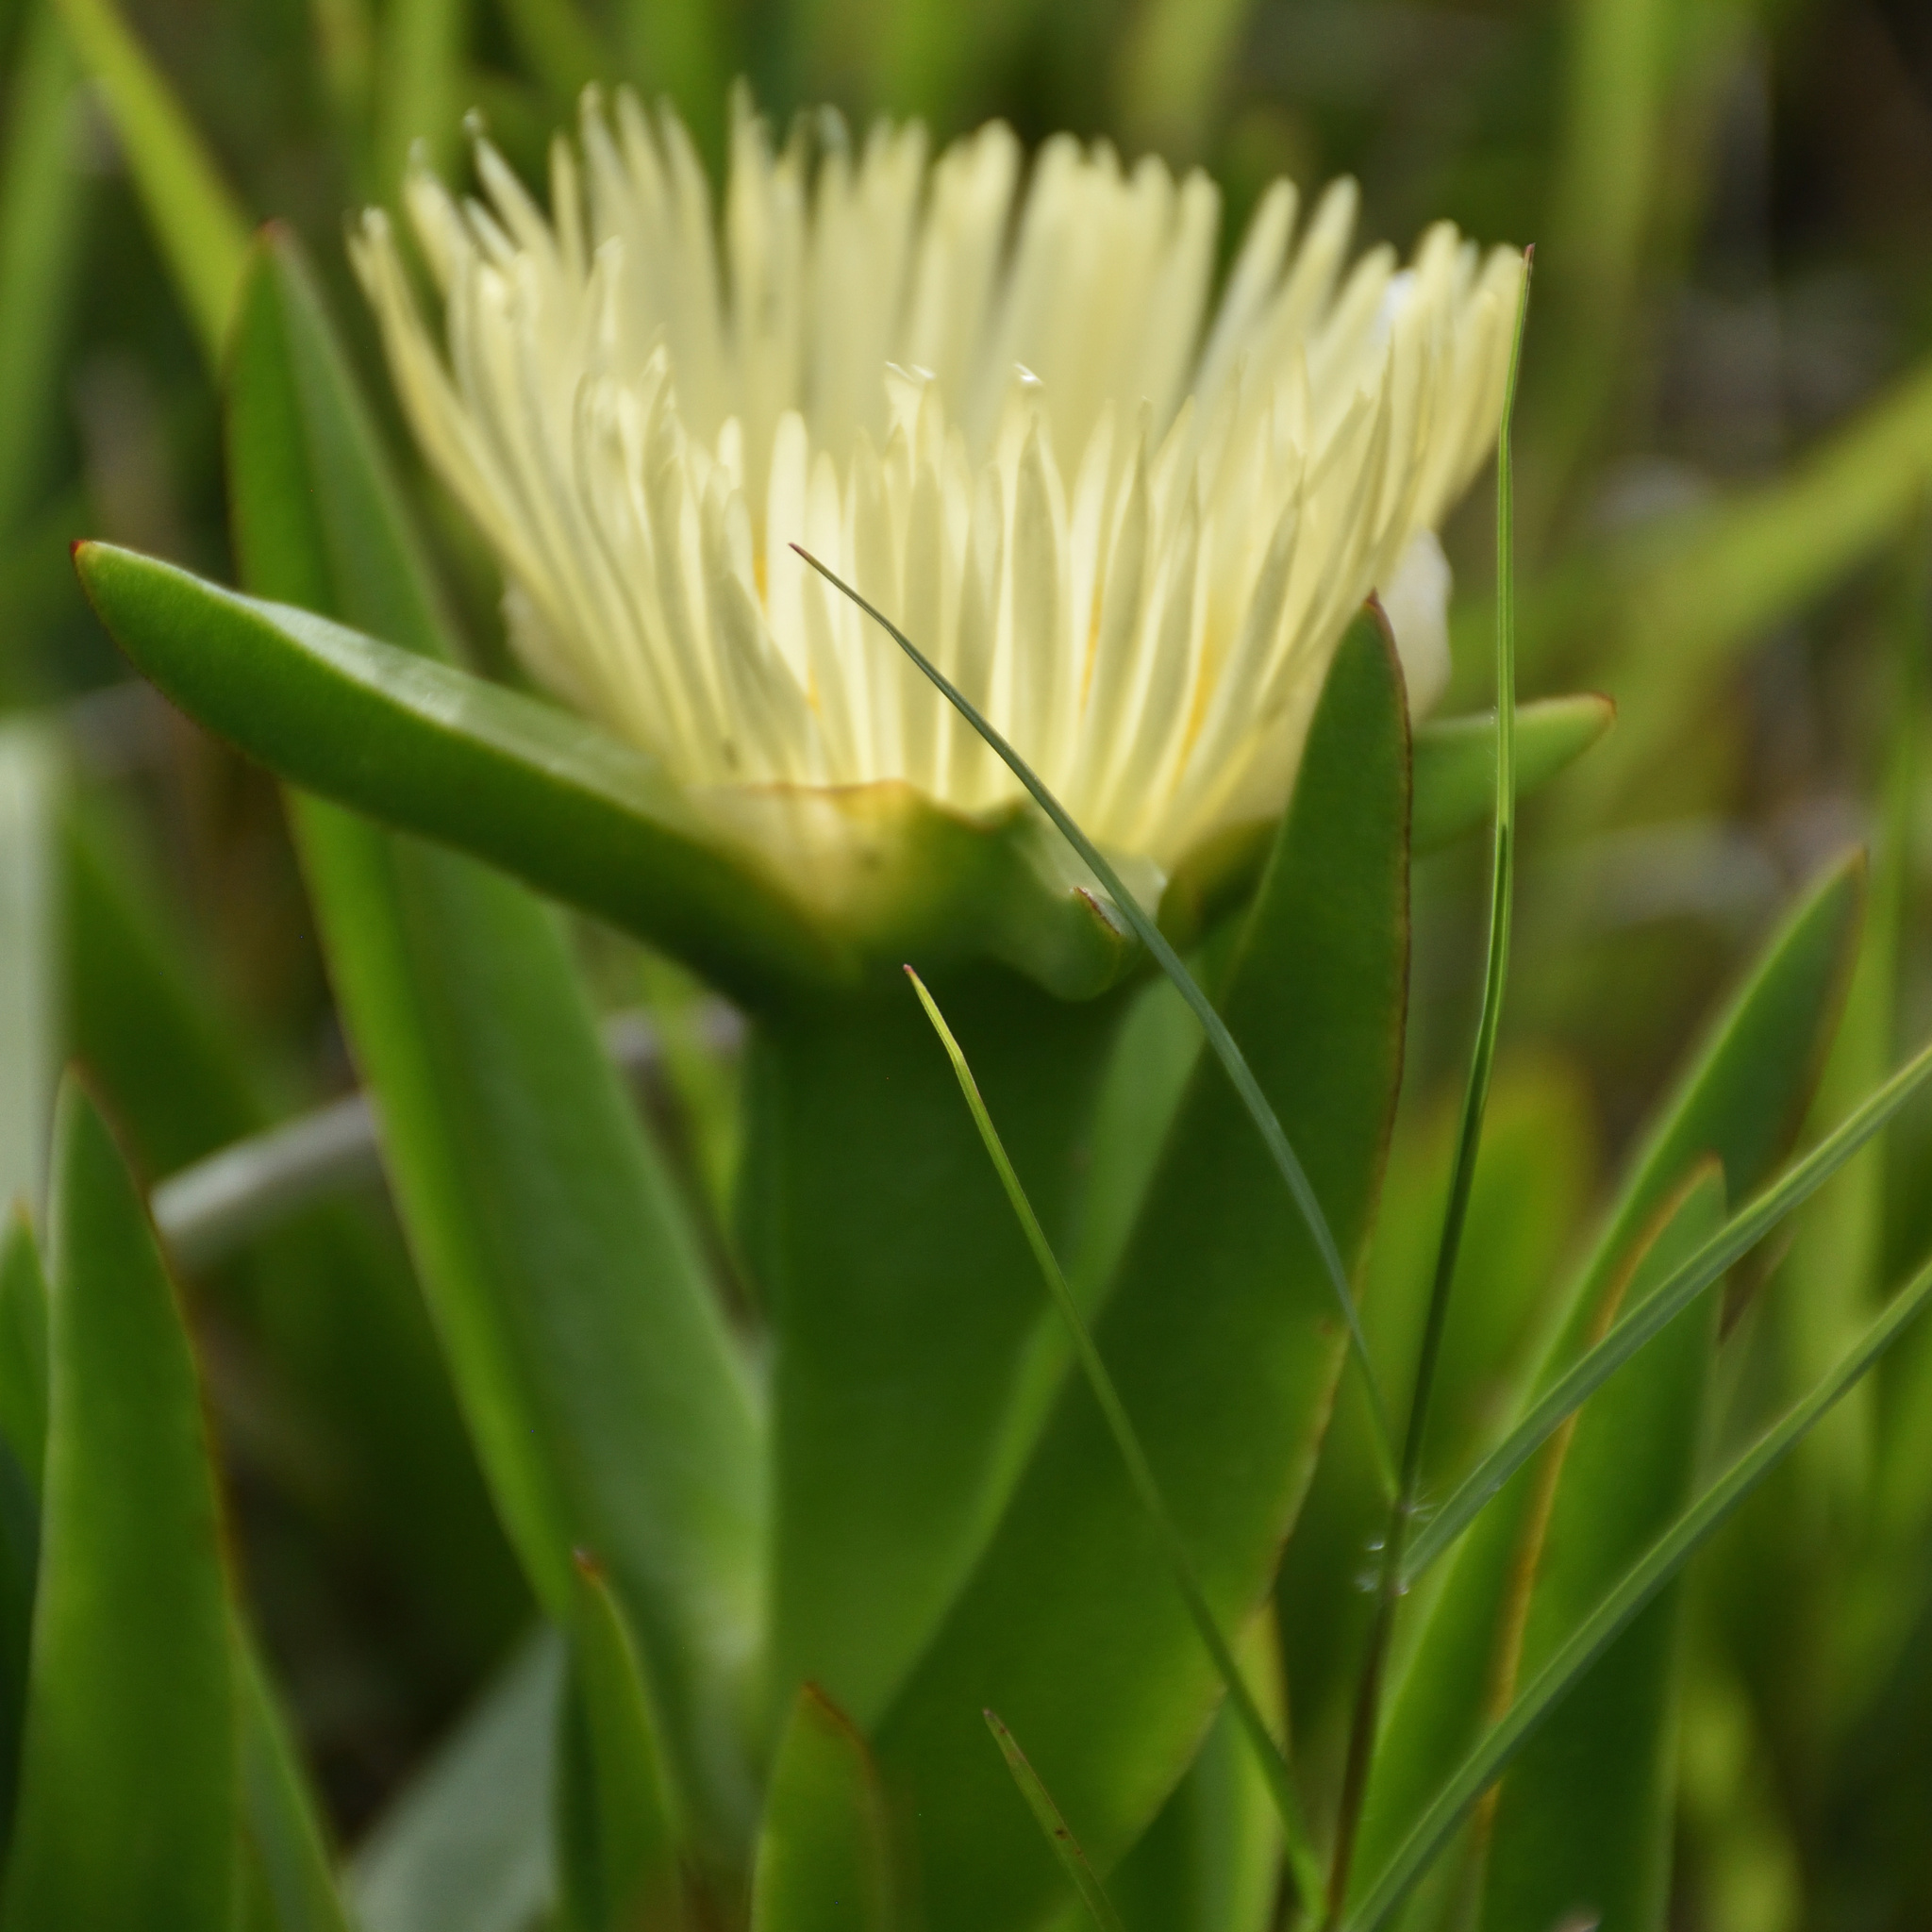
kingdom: Plantae
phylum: Tracheophyta
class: Magnoliopsida
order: Caryophyllales
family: Aizoaceae
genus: Carpobrotus
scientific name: Carpobrotus edulis
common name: Hottentot-fig
